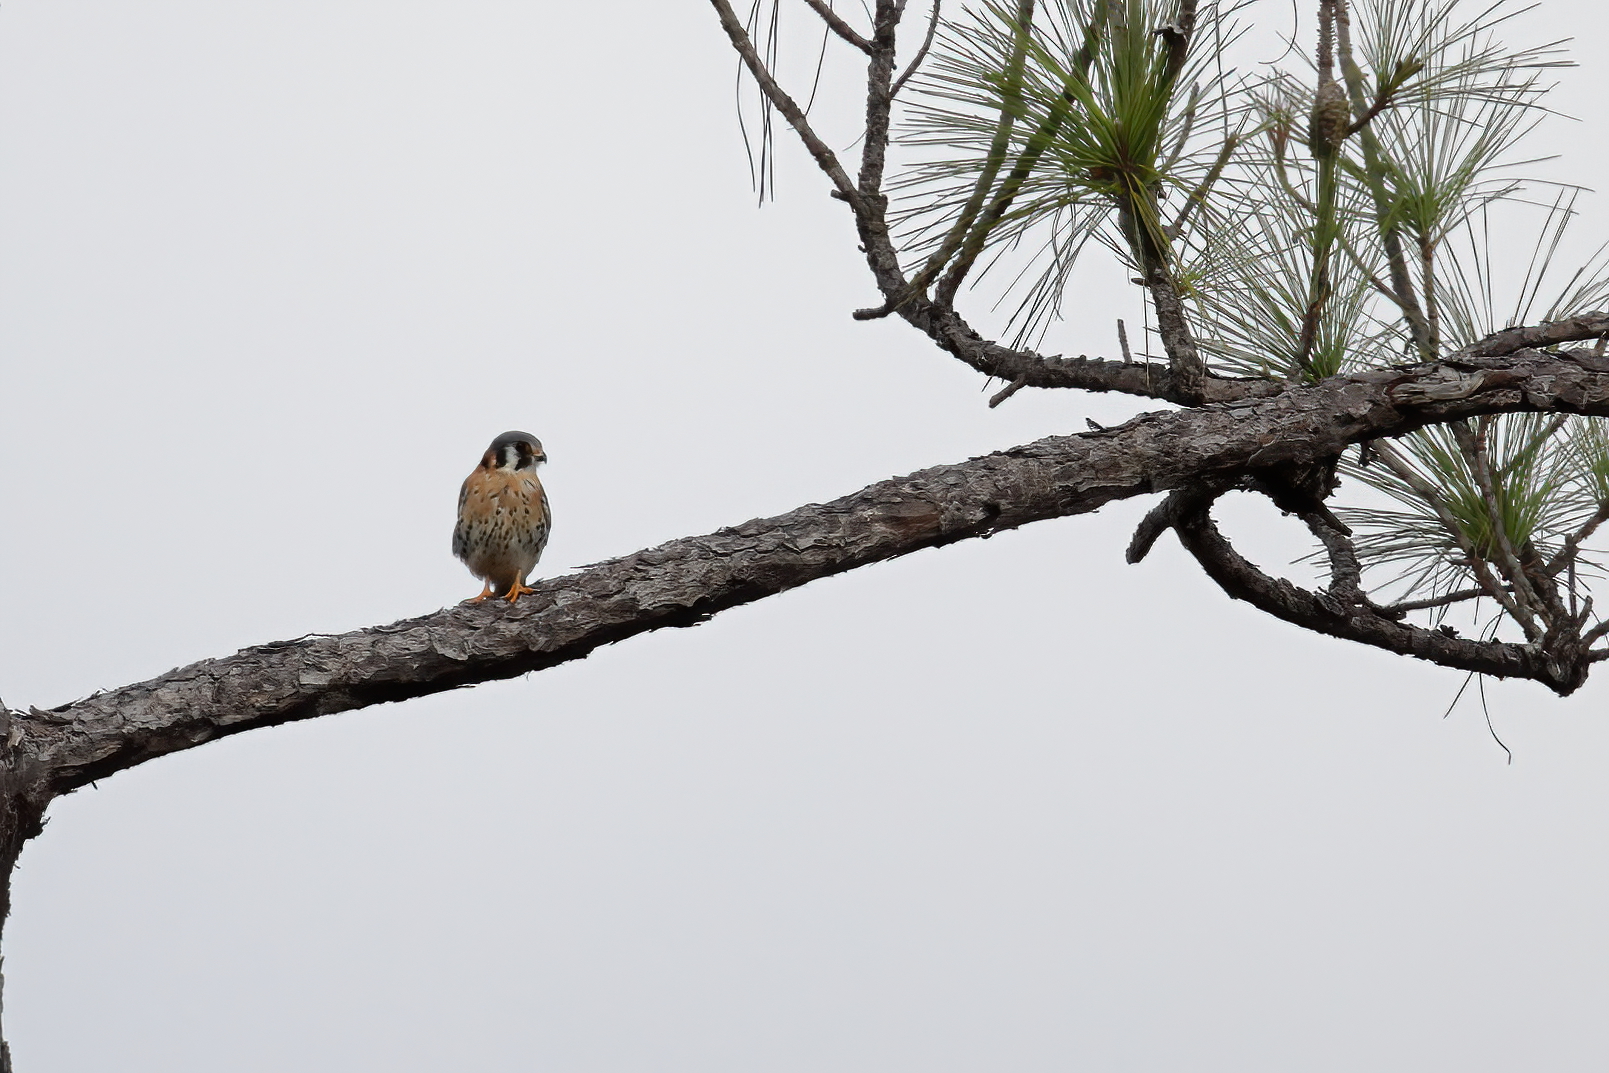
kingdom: Animalia
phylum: Chordata
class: Aves
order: Falconiformes
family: Falconidae
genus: Falco
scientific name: Falco sparverius
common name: American kestrel
